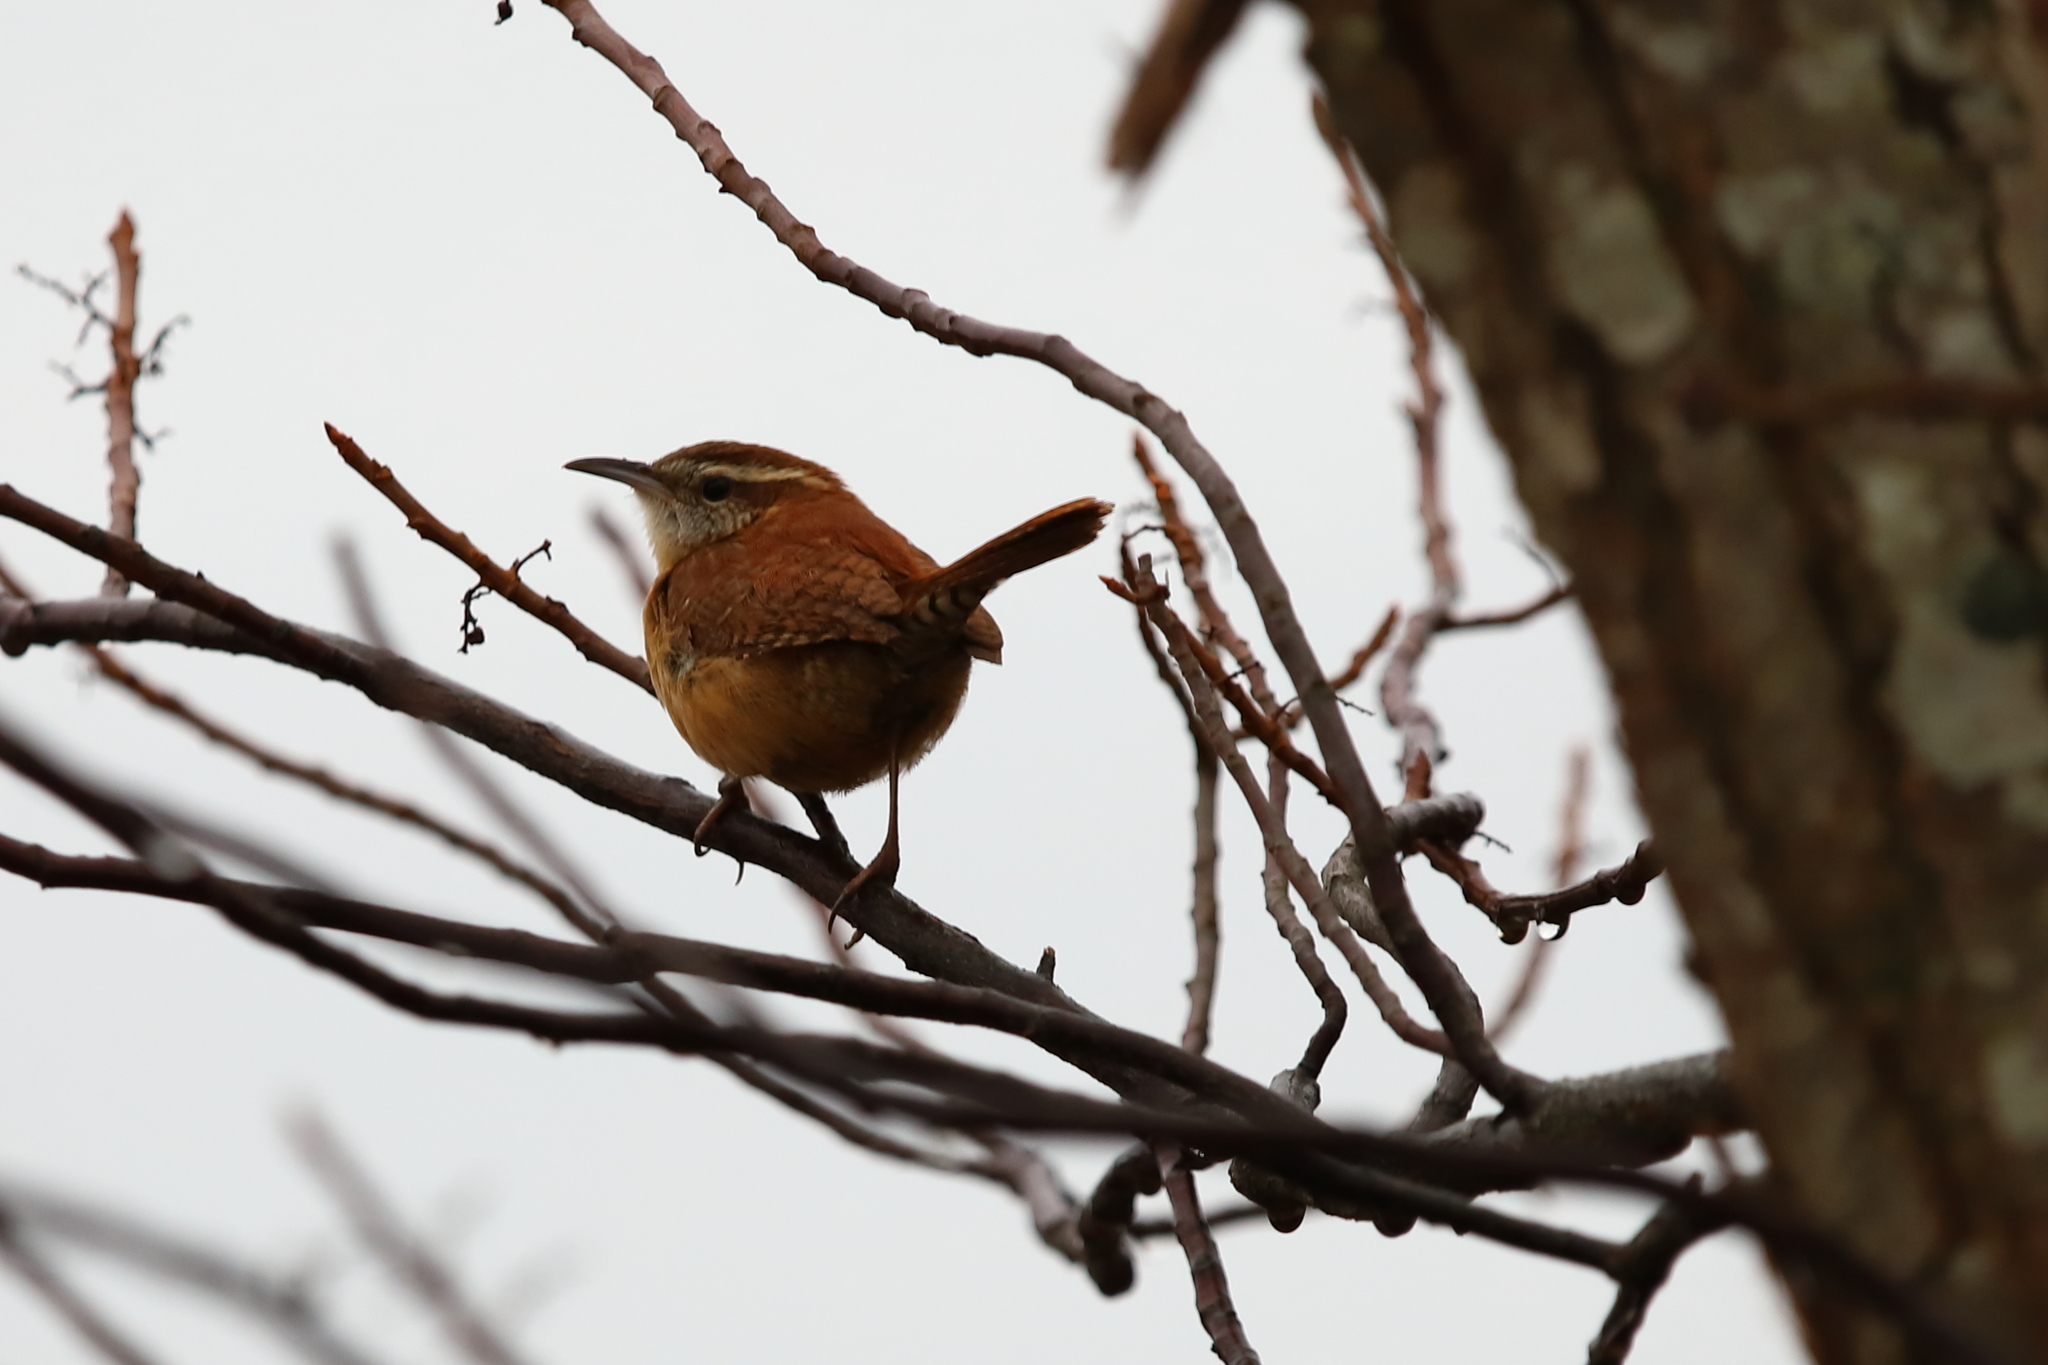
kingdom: Animalia
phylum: Chordata
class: Aves
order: Passeriformes
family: Troglodytidae
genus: Thryothorus
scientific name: Thryothorus ludovicianus
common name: Carolina wren
